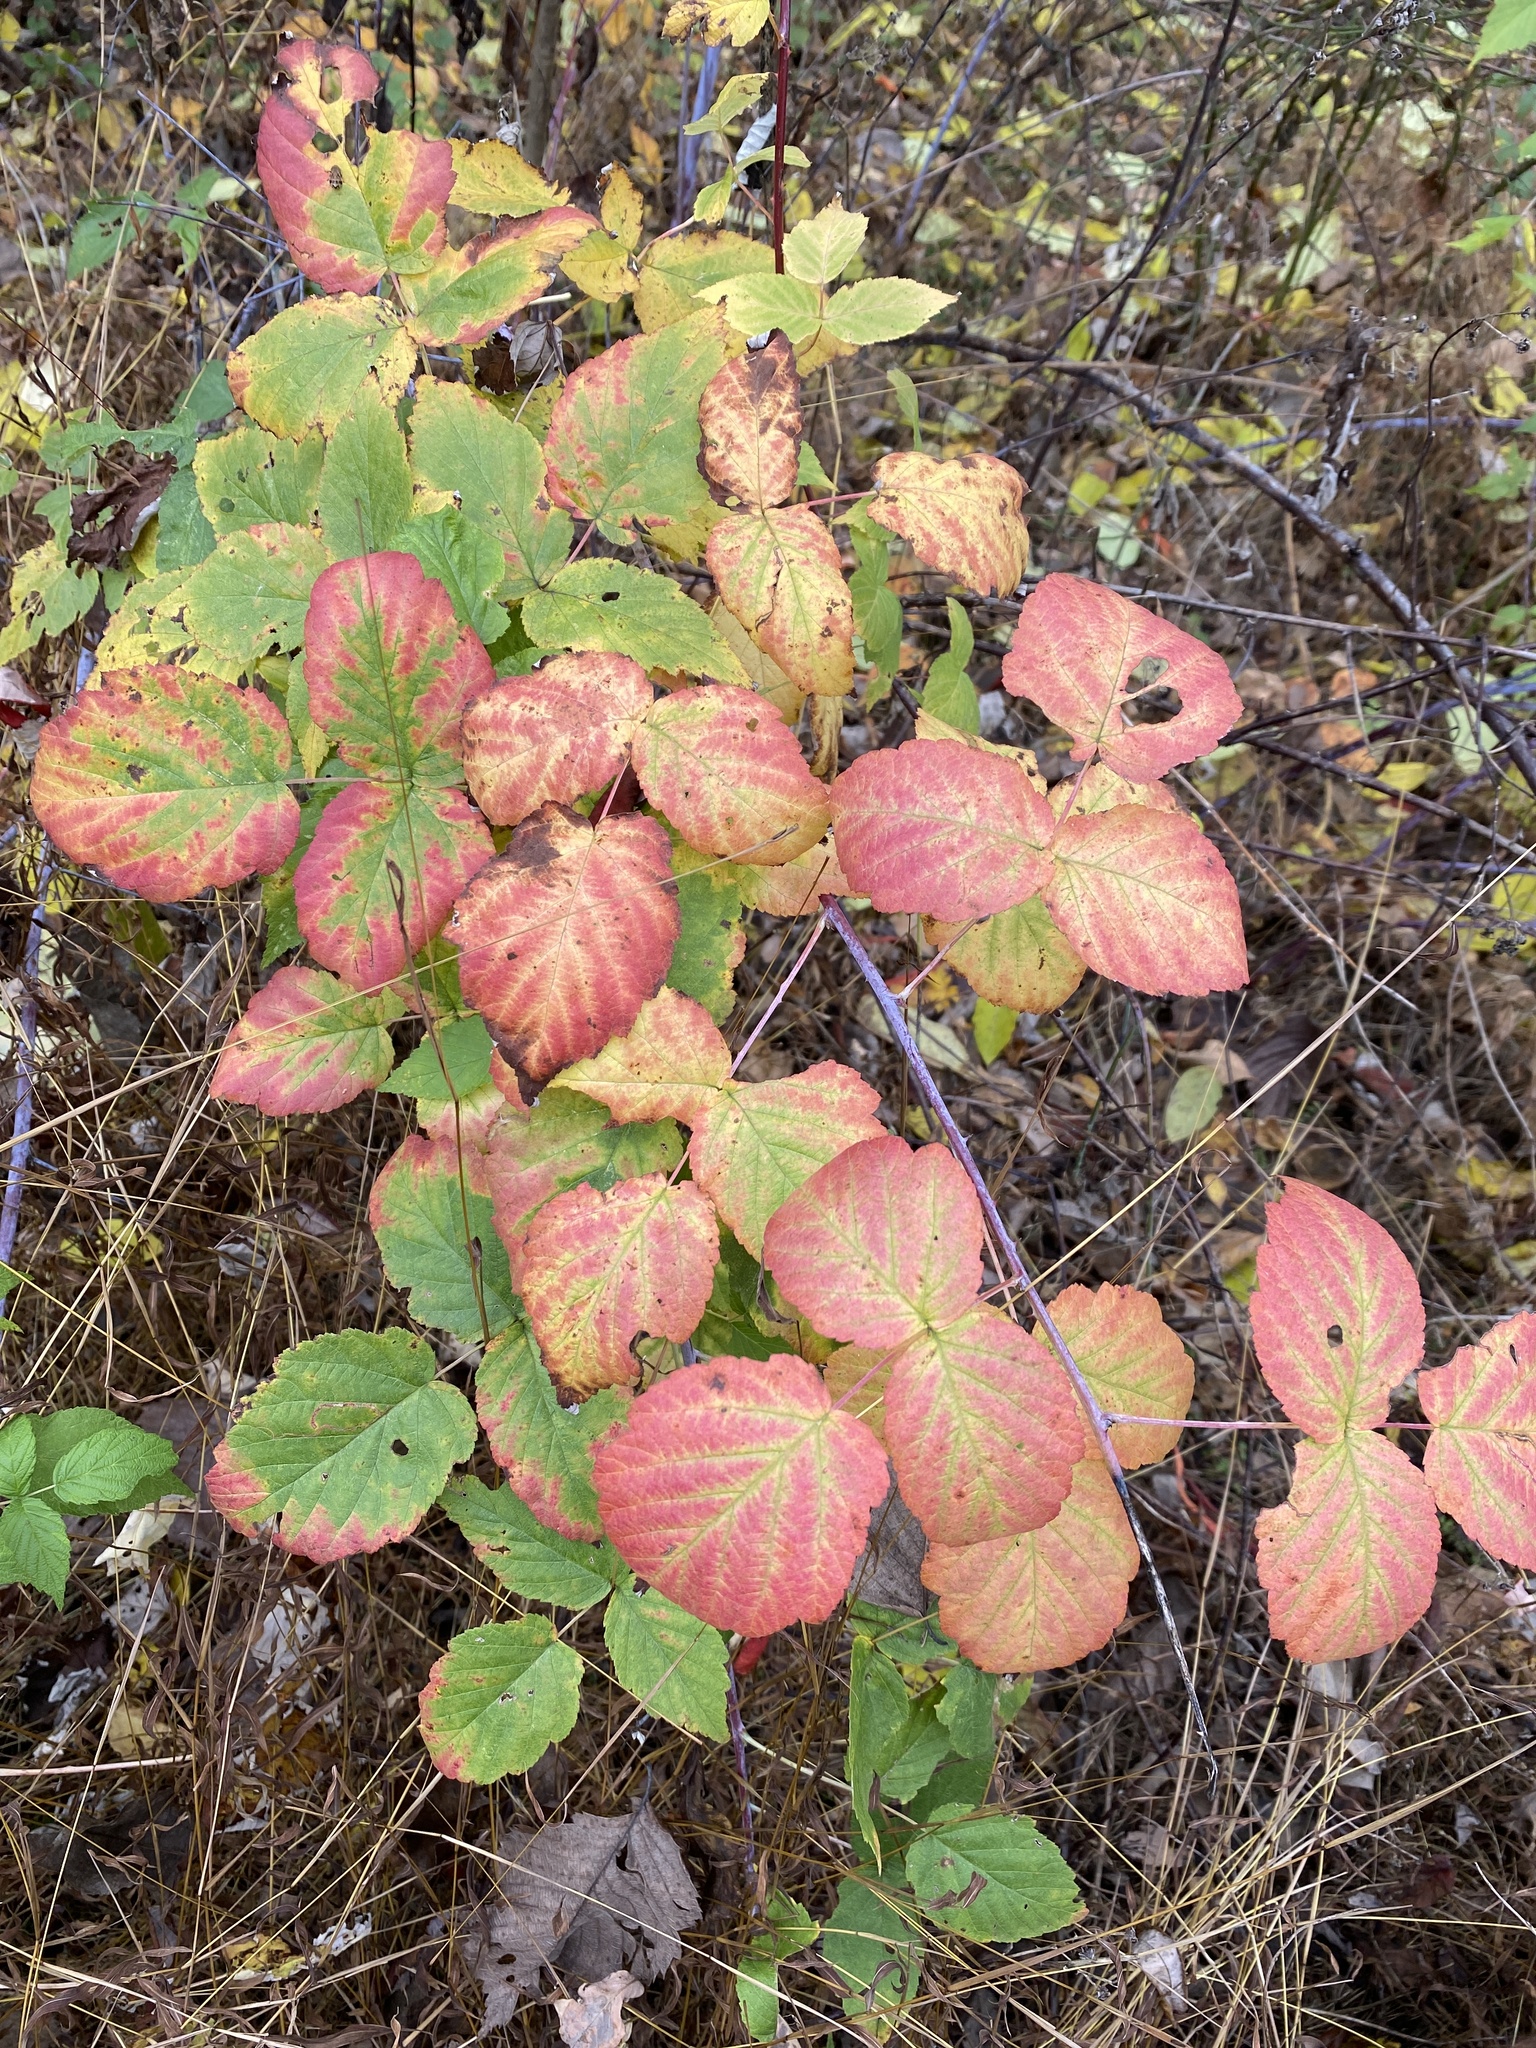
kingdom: Plantae
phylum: Tracheophyta
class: Magnoliopsida
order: Rosales
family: Rosaceae
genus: Rubus
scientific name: Rubus occidentalis
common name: Black raspberry
